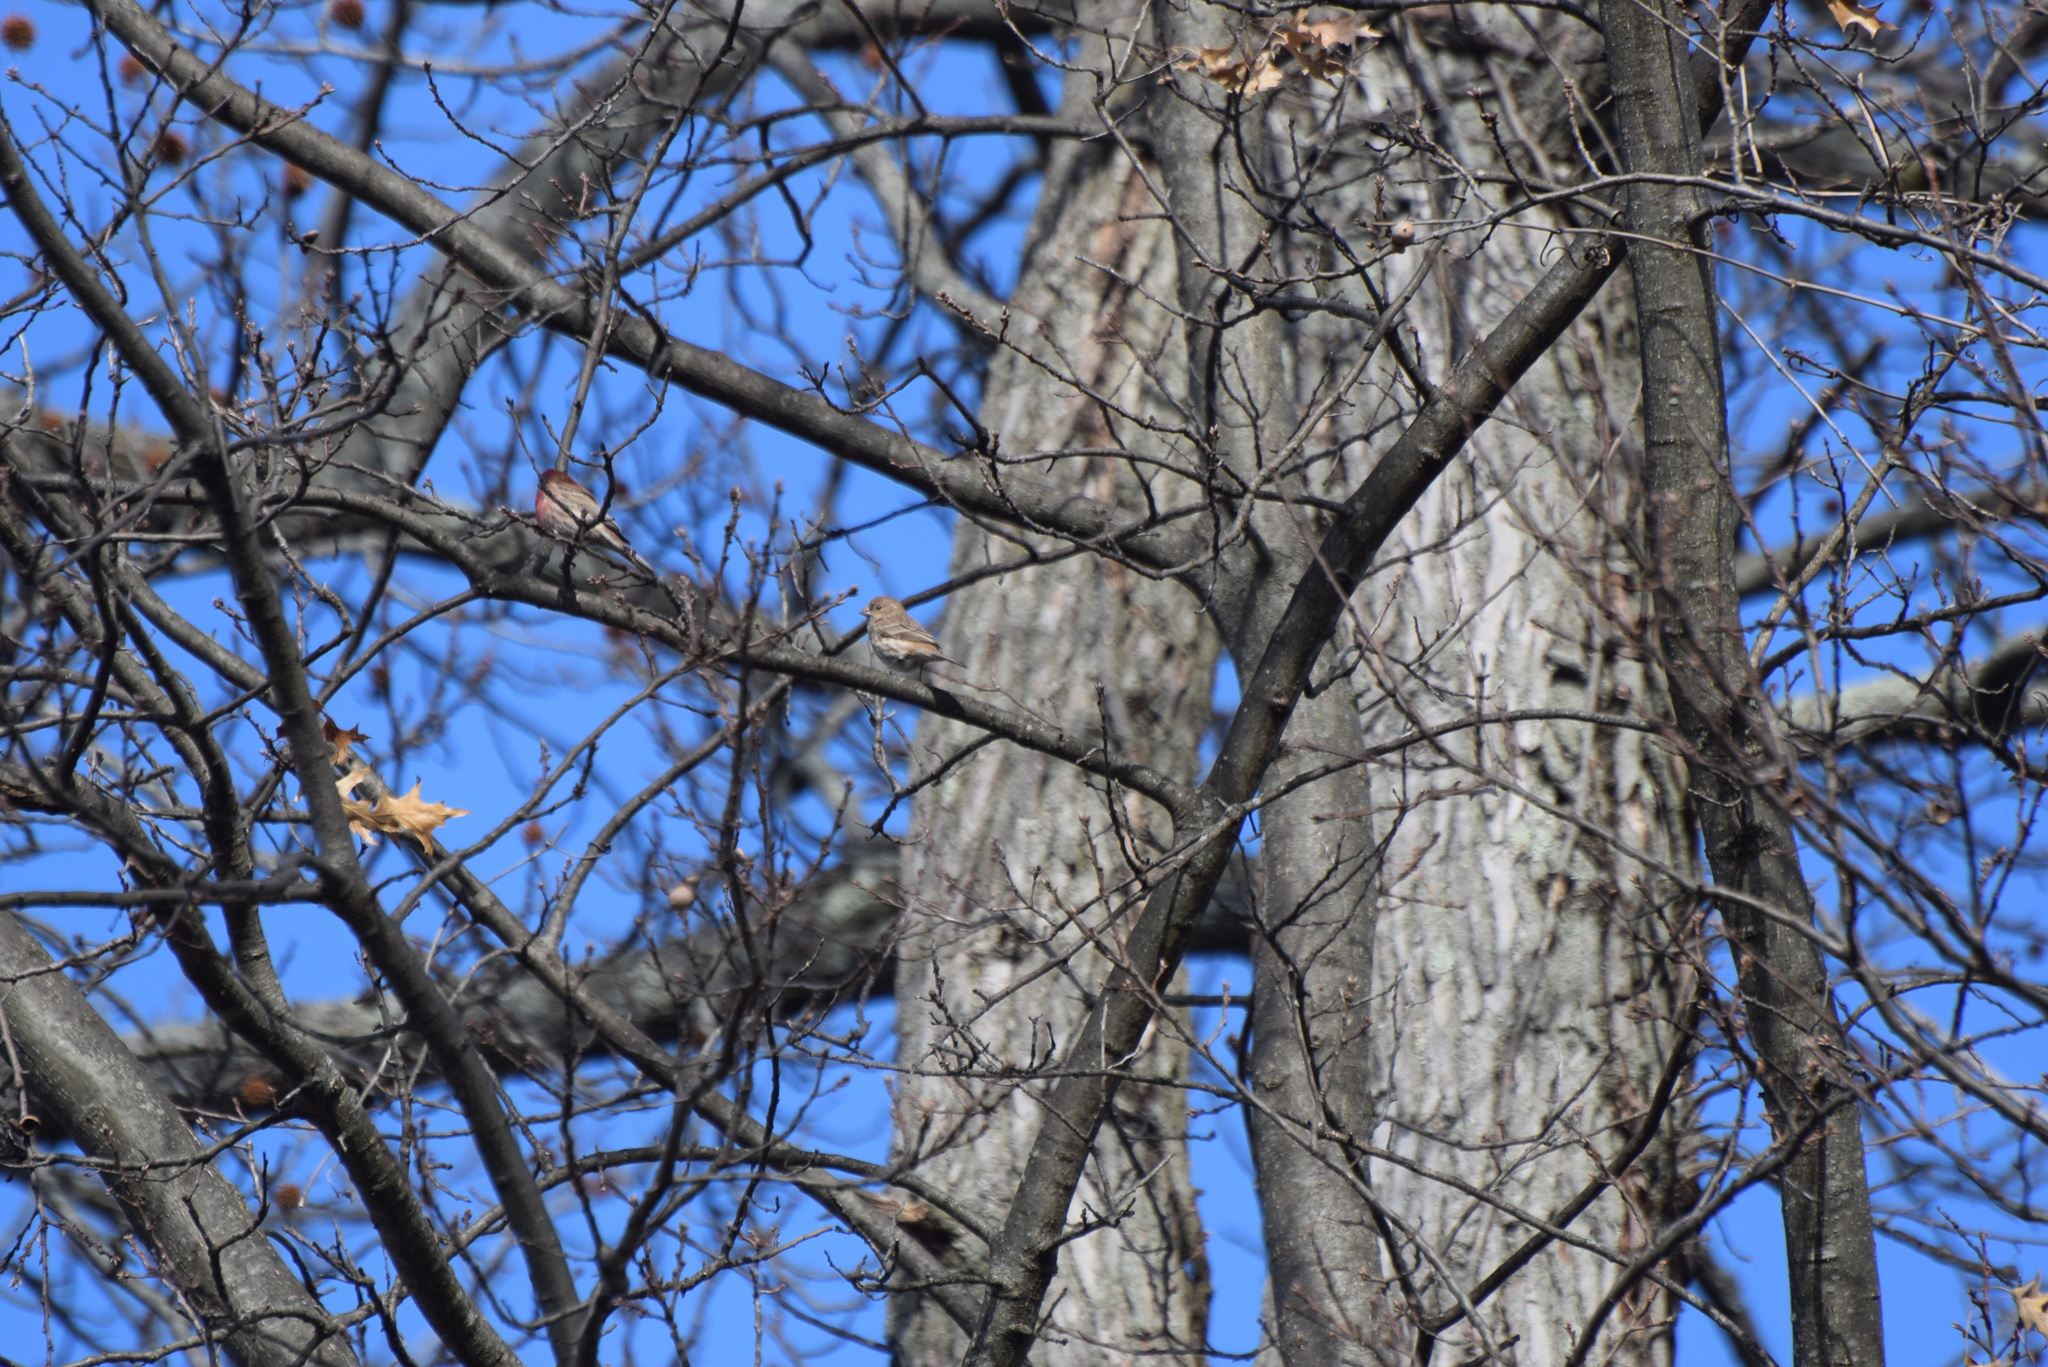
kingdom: Animalia
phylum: Chordata
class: Aves
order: Passeriformes
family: Fringillidae
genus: Haemorhous
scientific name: Haemorhous mexicanus
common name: House finch
